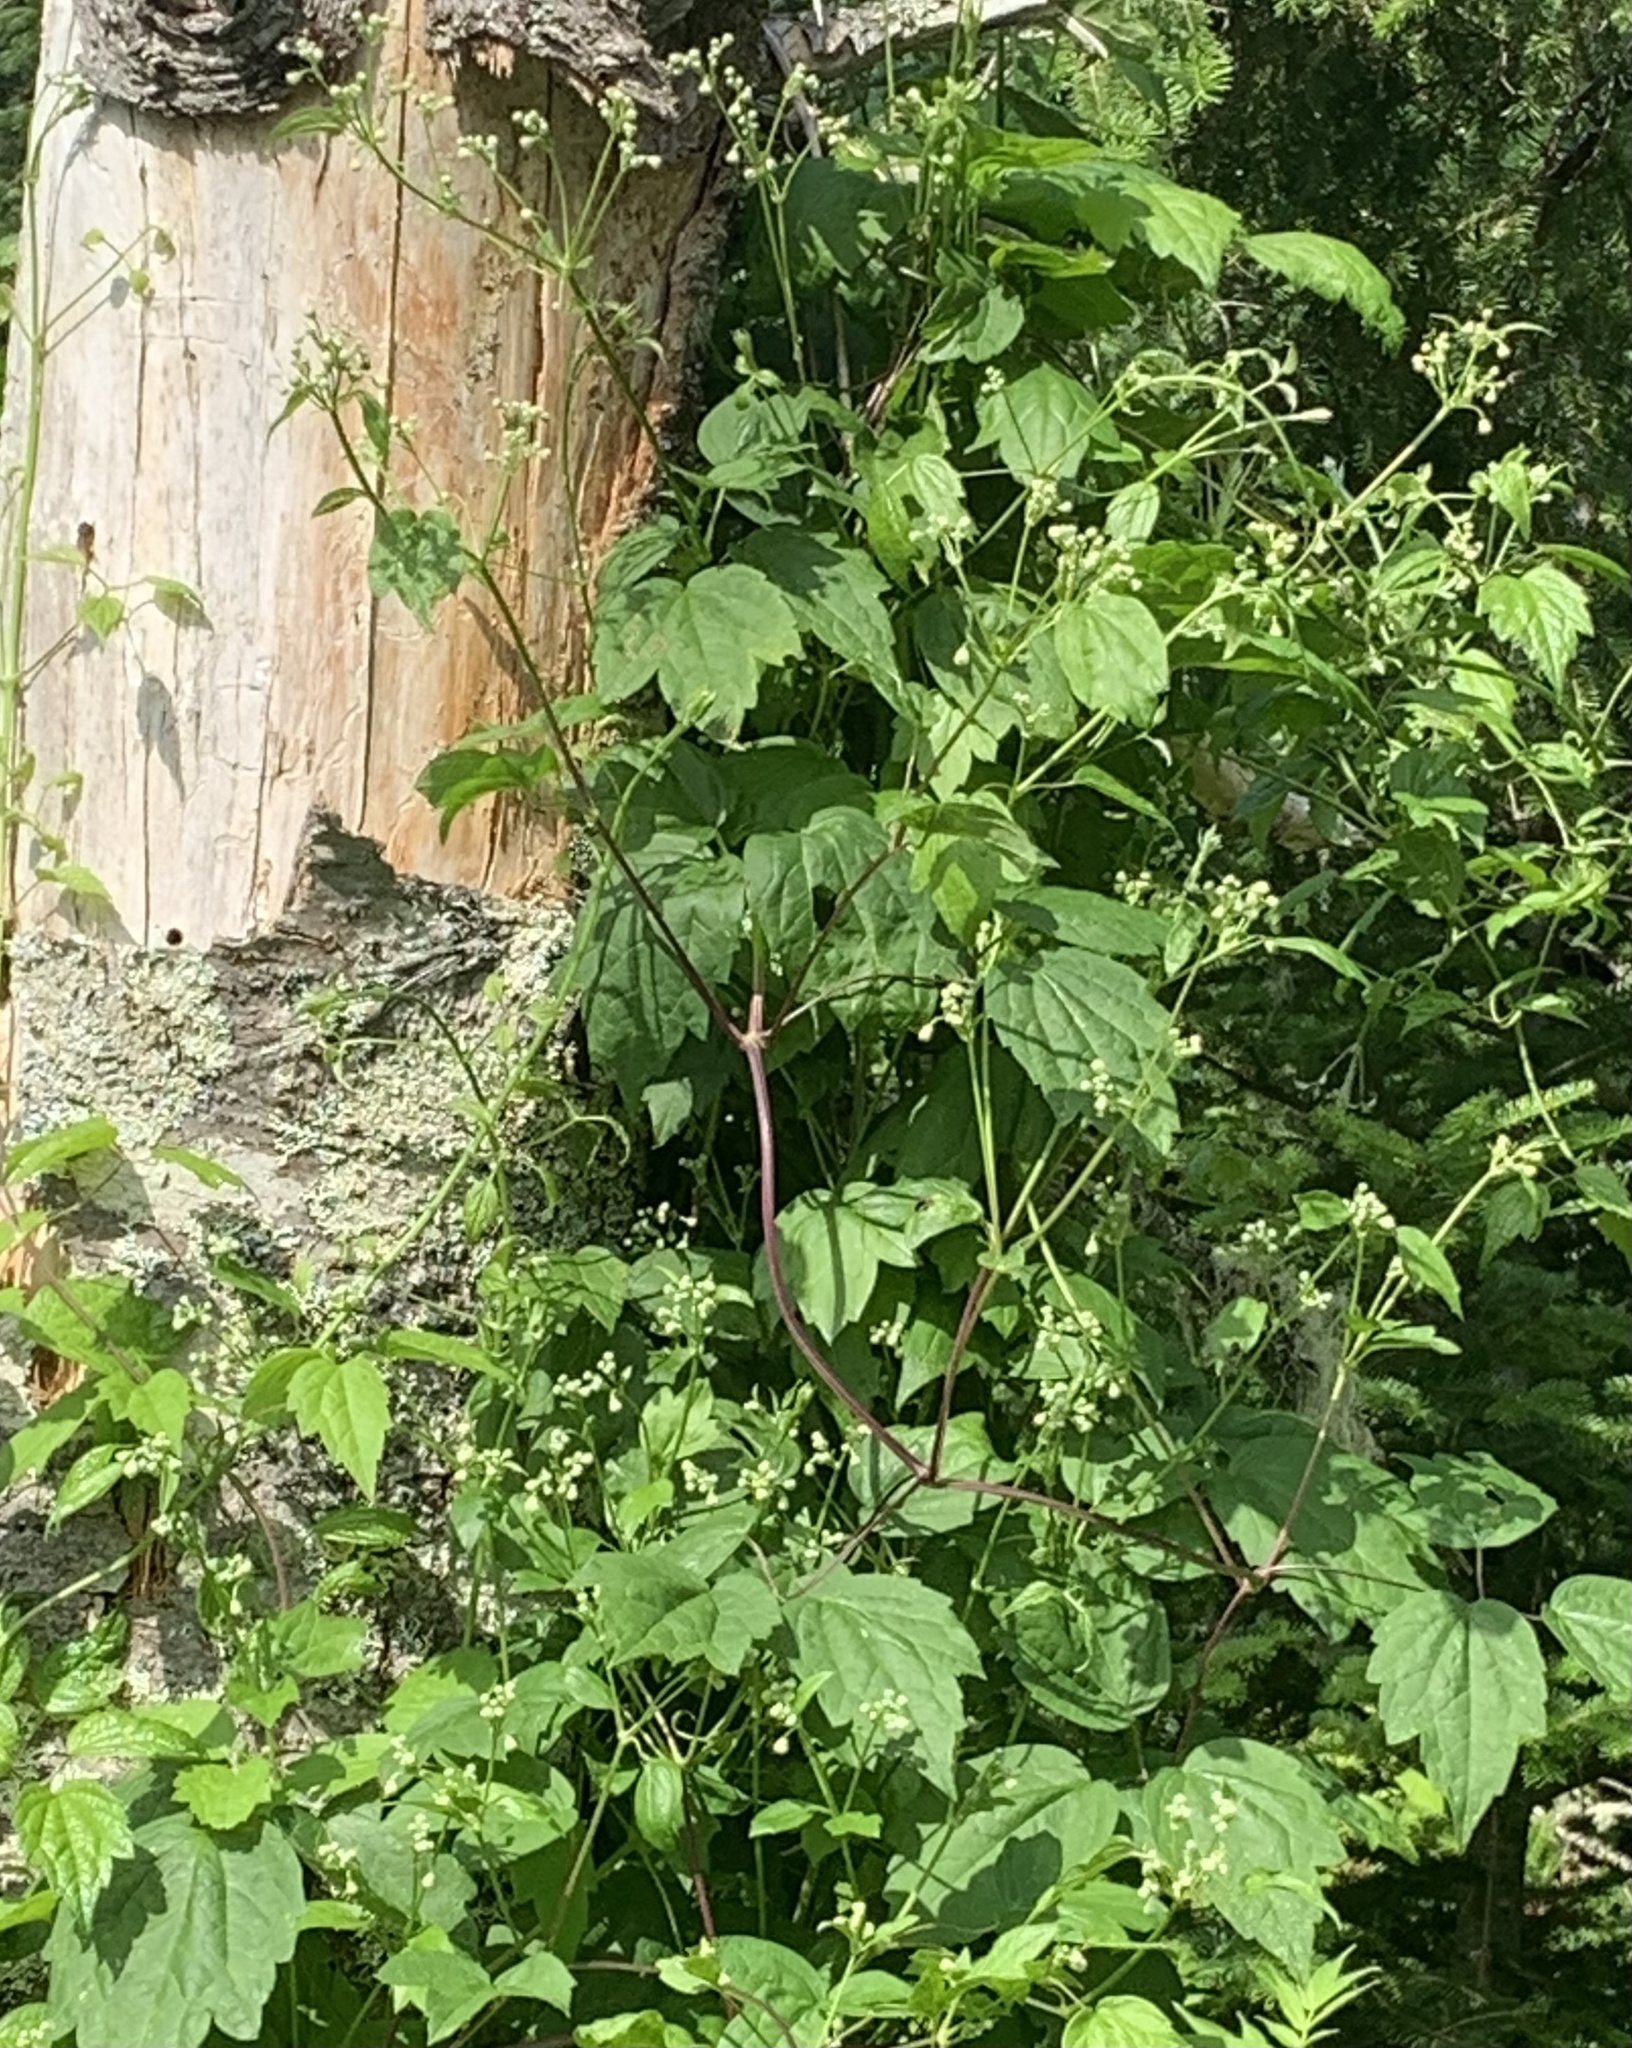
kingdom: Plantae
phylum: Tracheophyta
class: Magnoliopsida
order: Ranunculales
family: Ranunculaceae
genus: Clematis
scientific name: Clematis virginiana
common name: Virgin's-bower
